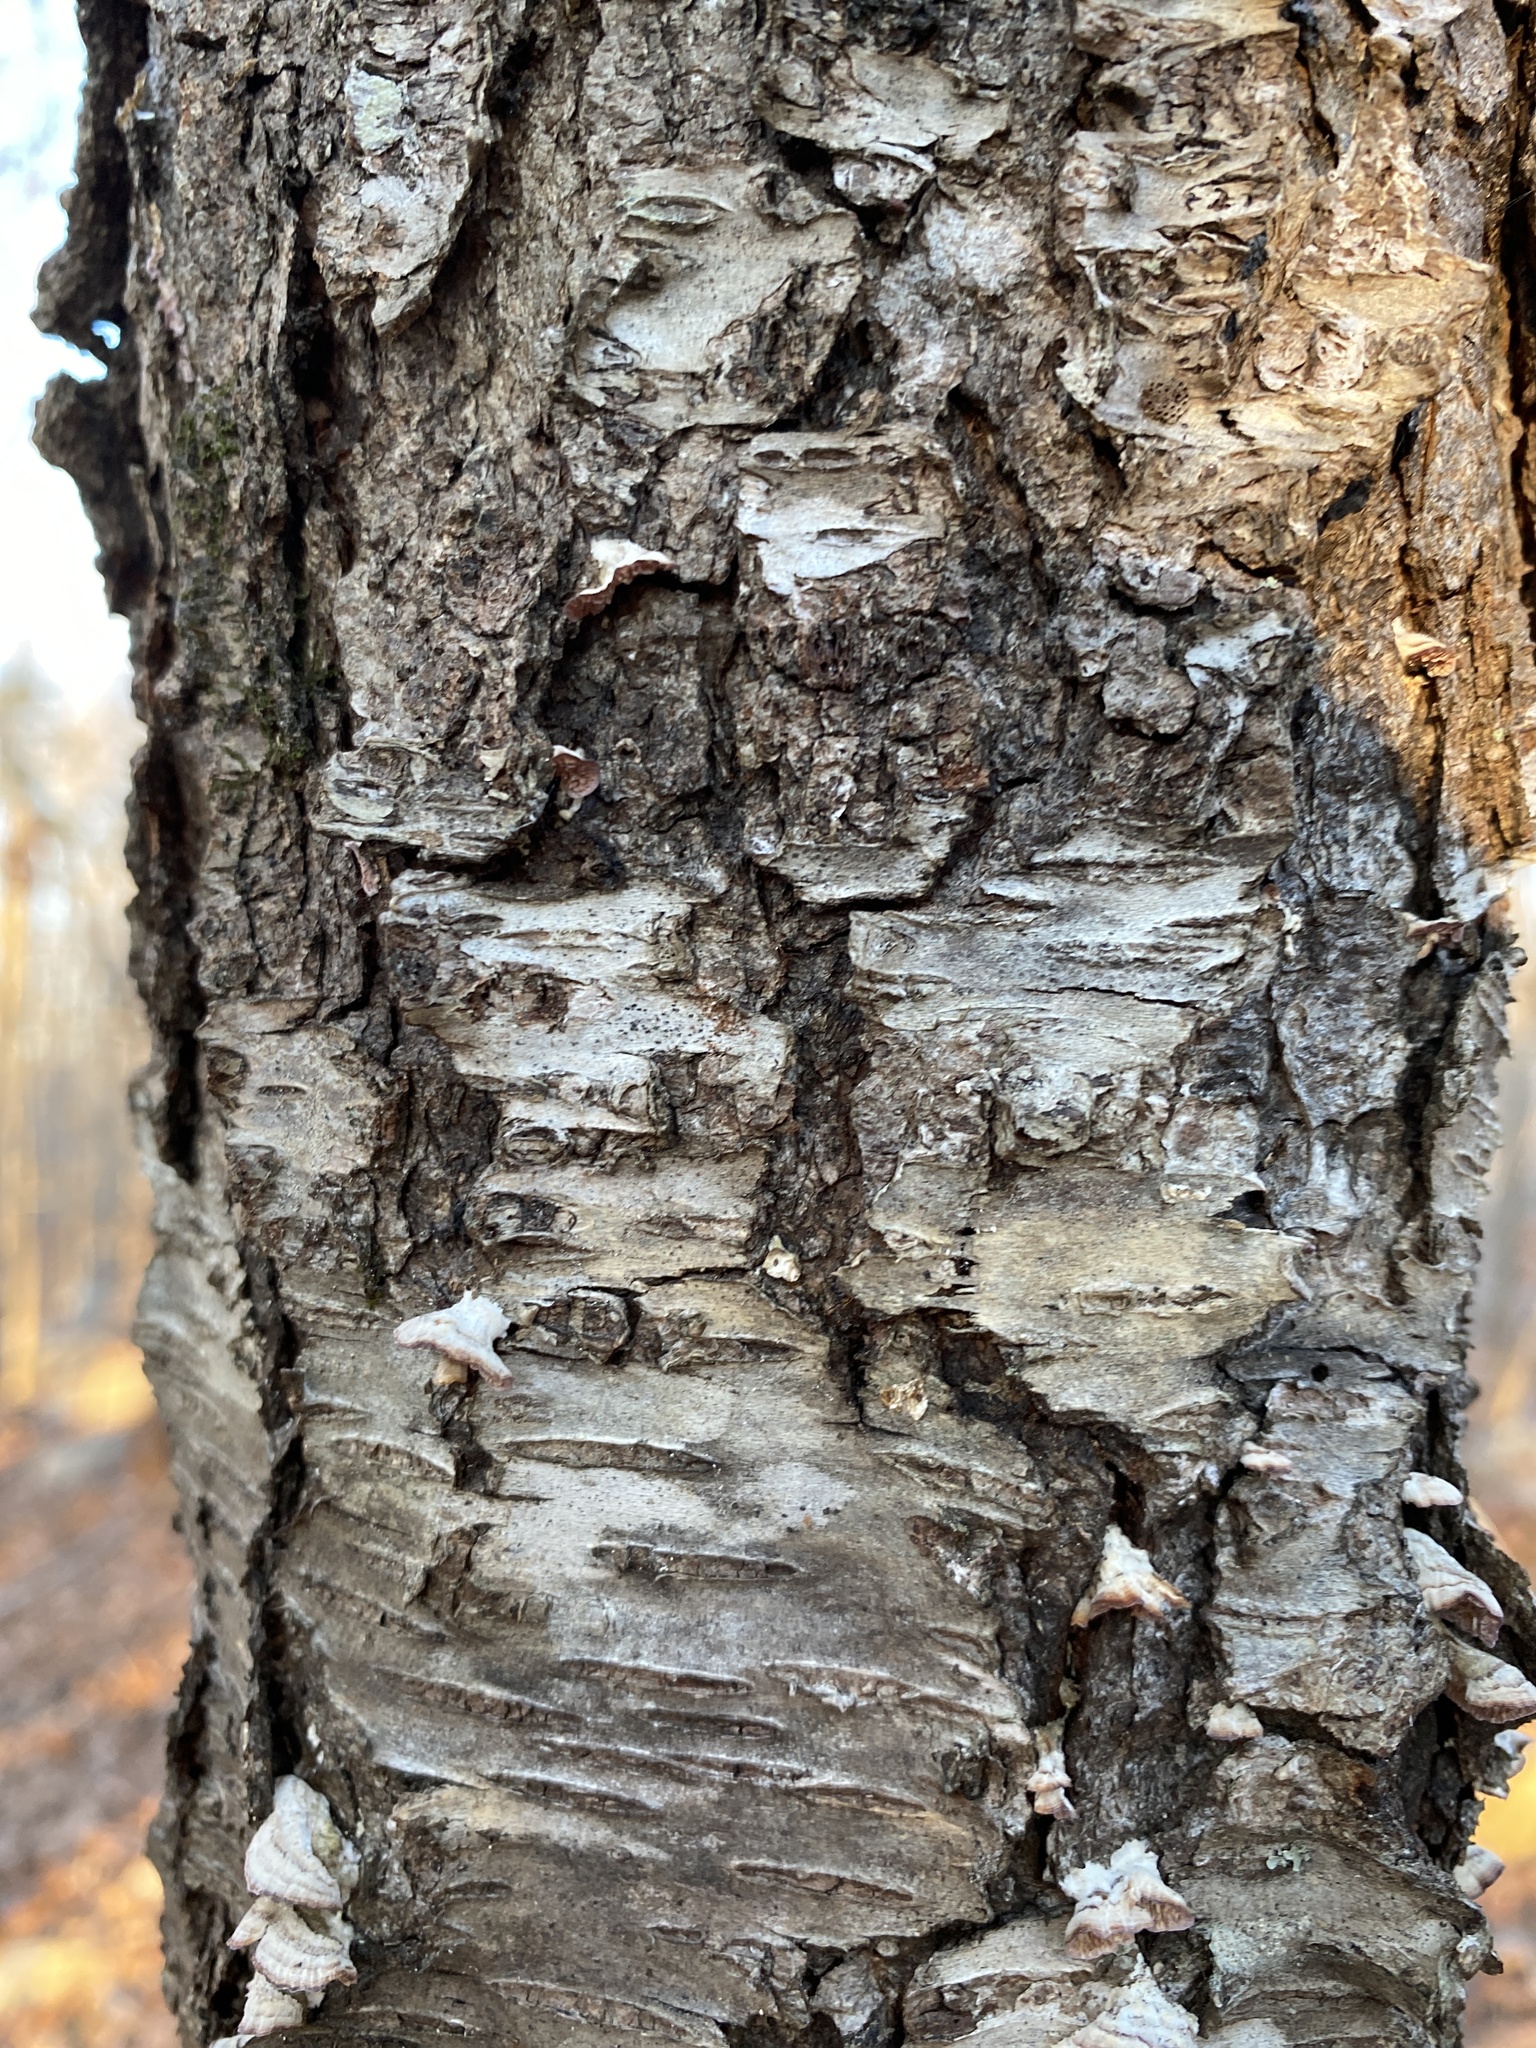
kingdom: Plantae
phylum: Tracheophyta
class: Magnoliopsida
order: Rosales
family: Rosaceae
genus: Prunus
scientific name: Prunus serotina
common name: Black cherry
